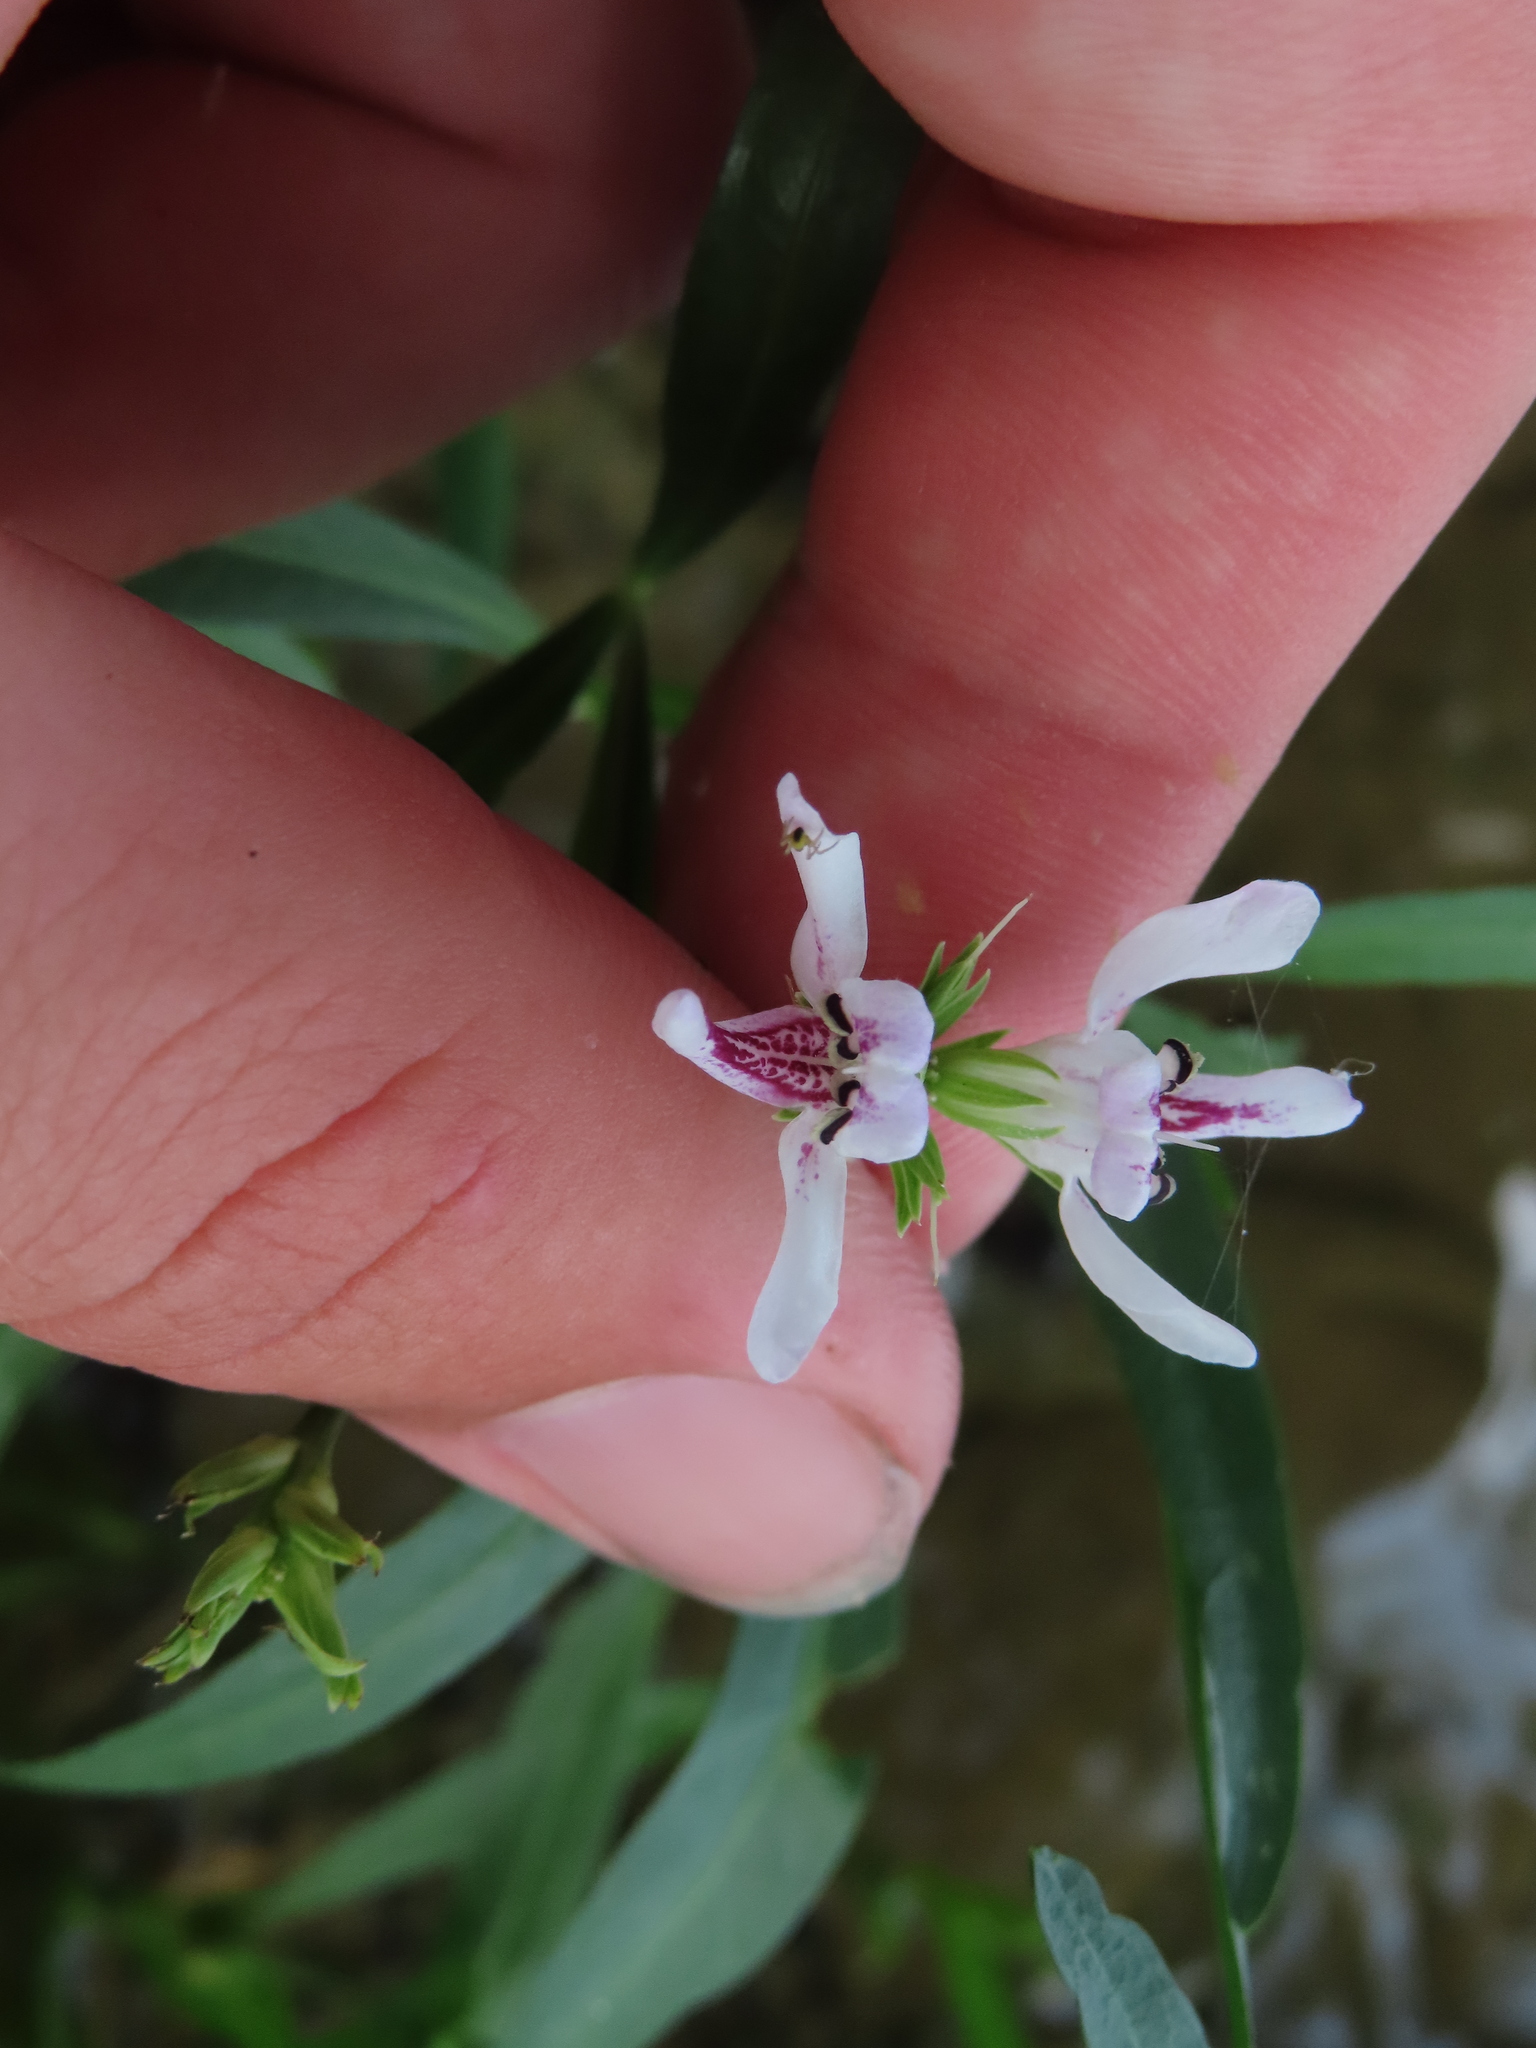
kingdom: Plantae
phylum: Tracheophyta
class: Magnoliopsida
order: Lamiales
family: Acanthaceae
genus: Dianthera
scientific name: Dianthera americana
